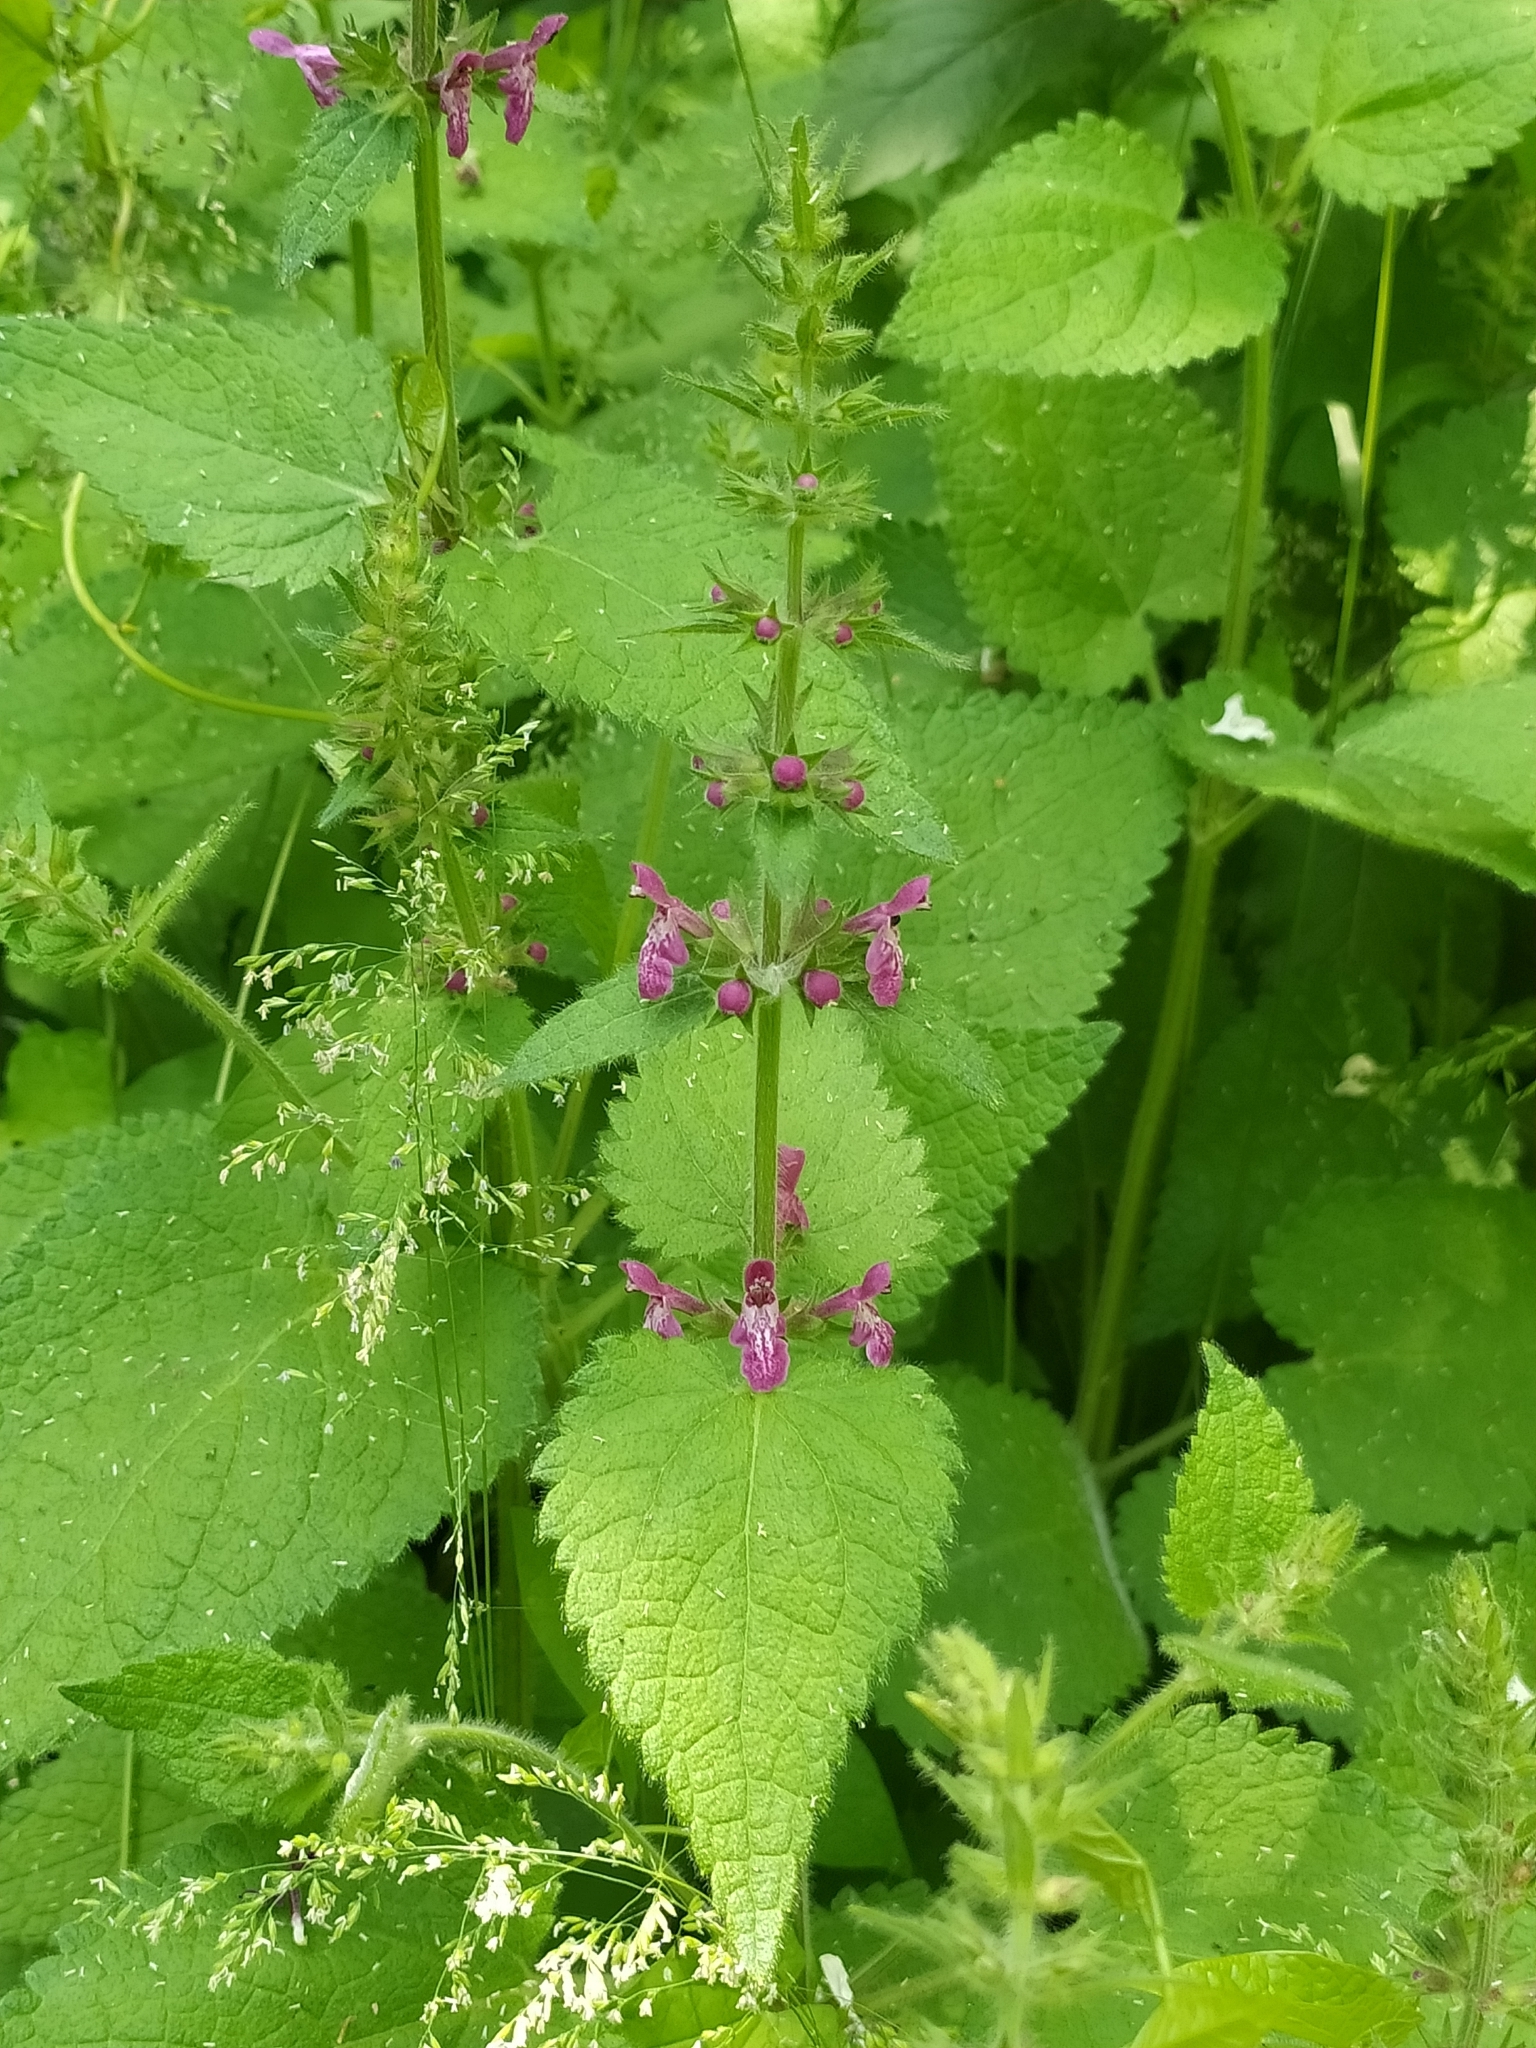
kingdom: Plantae
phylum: Tracheophyta
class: Magnoliopsida
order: Lamiales
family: Lamiaceae
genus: Stachys
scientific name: Stachys sylvatica
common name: Hedge woundwort
